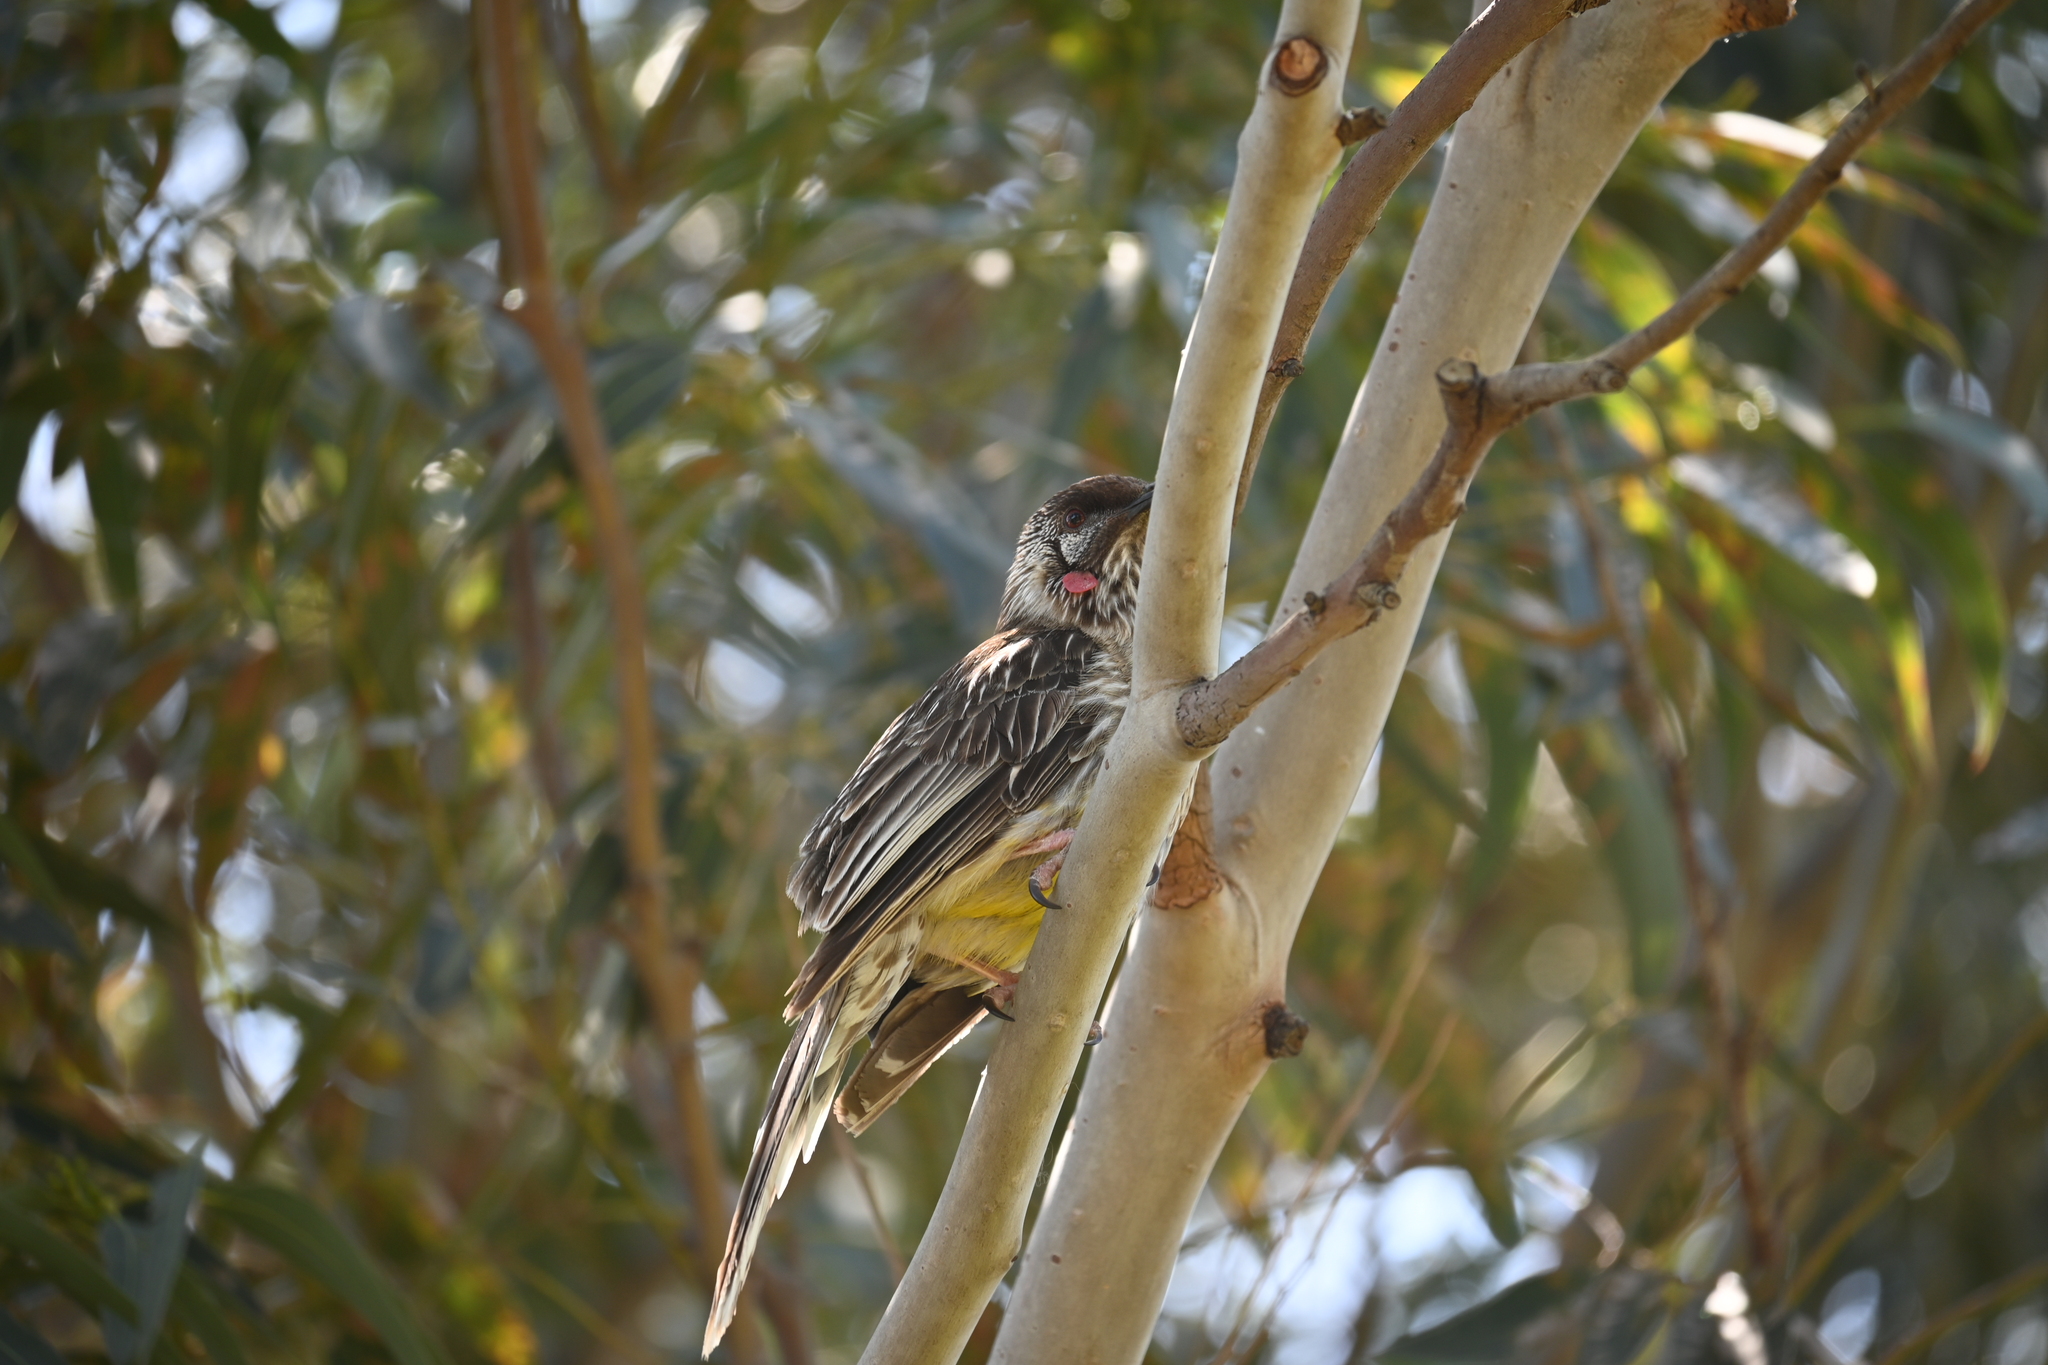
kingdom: Animalia
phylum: Chordata
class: Aves
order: Passeriformes
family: Meliphagidae
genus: Anthochaera
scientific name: Anthochaera carunculata
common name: Red wattlebird
